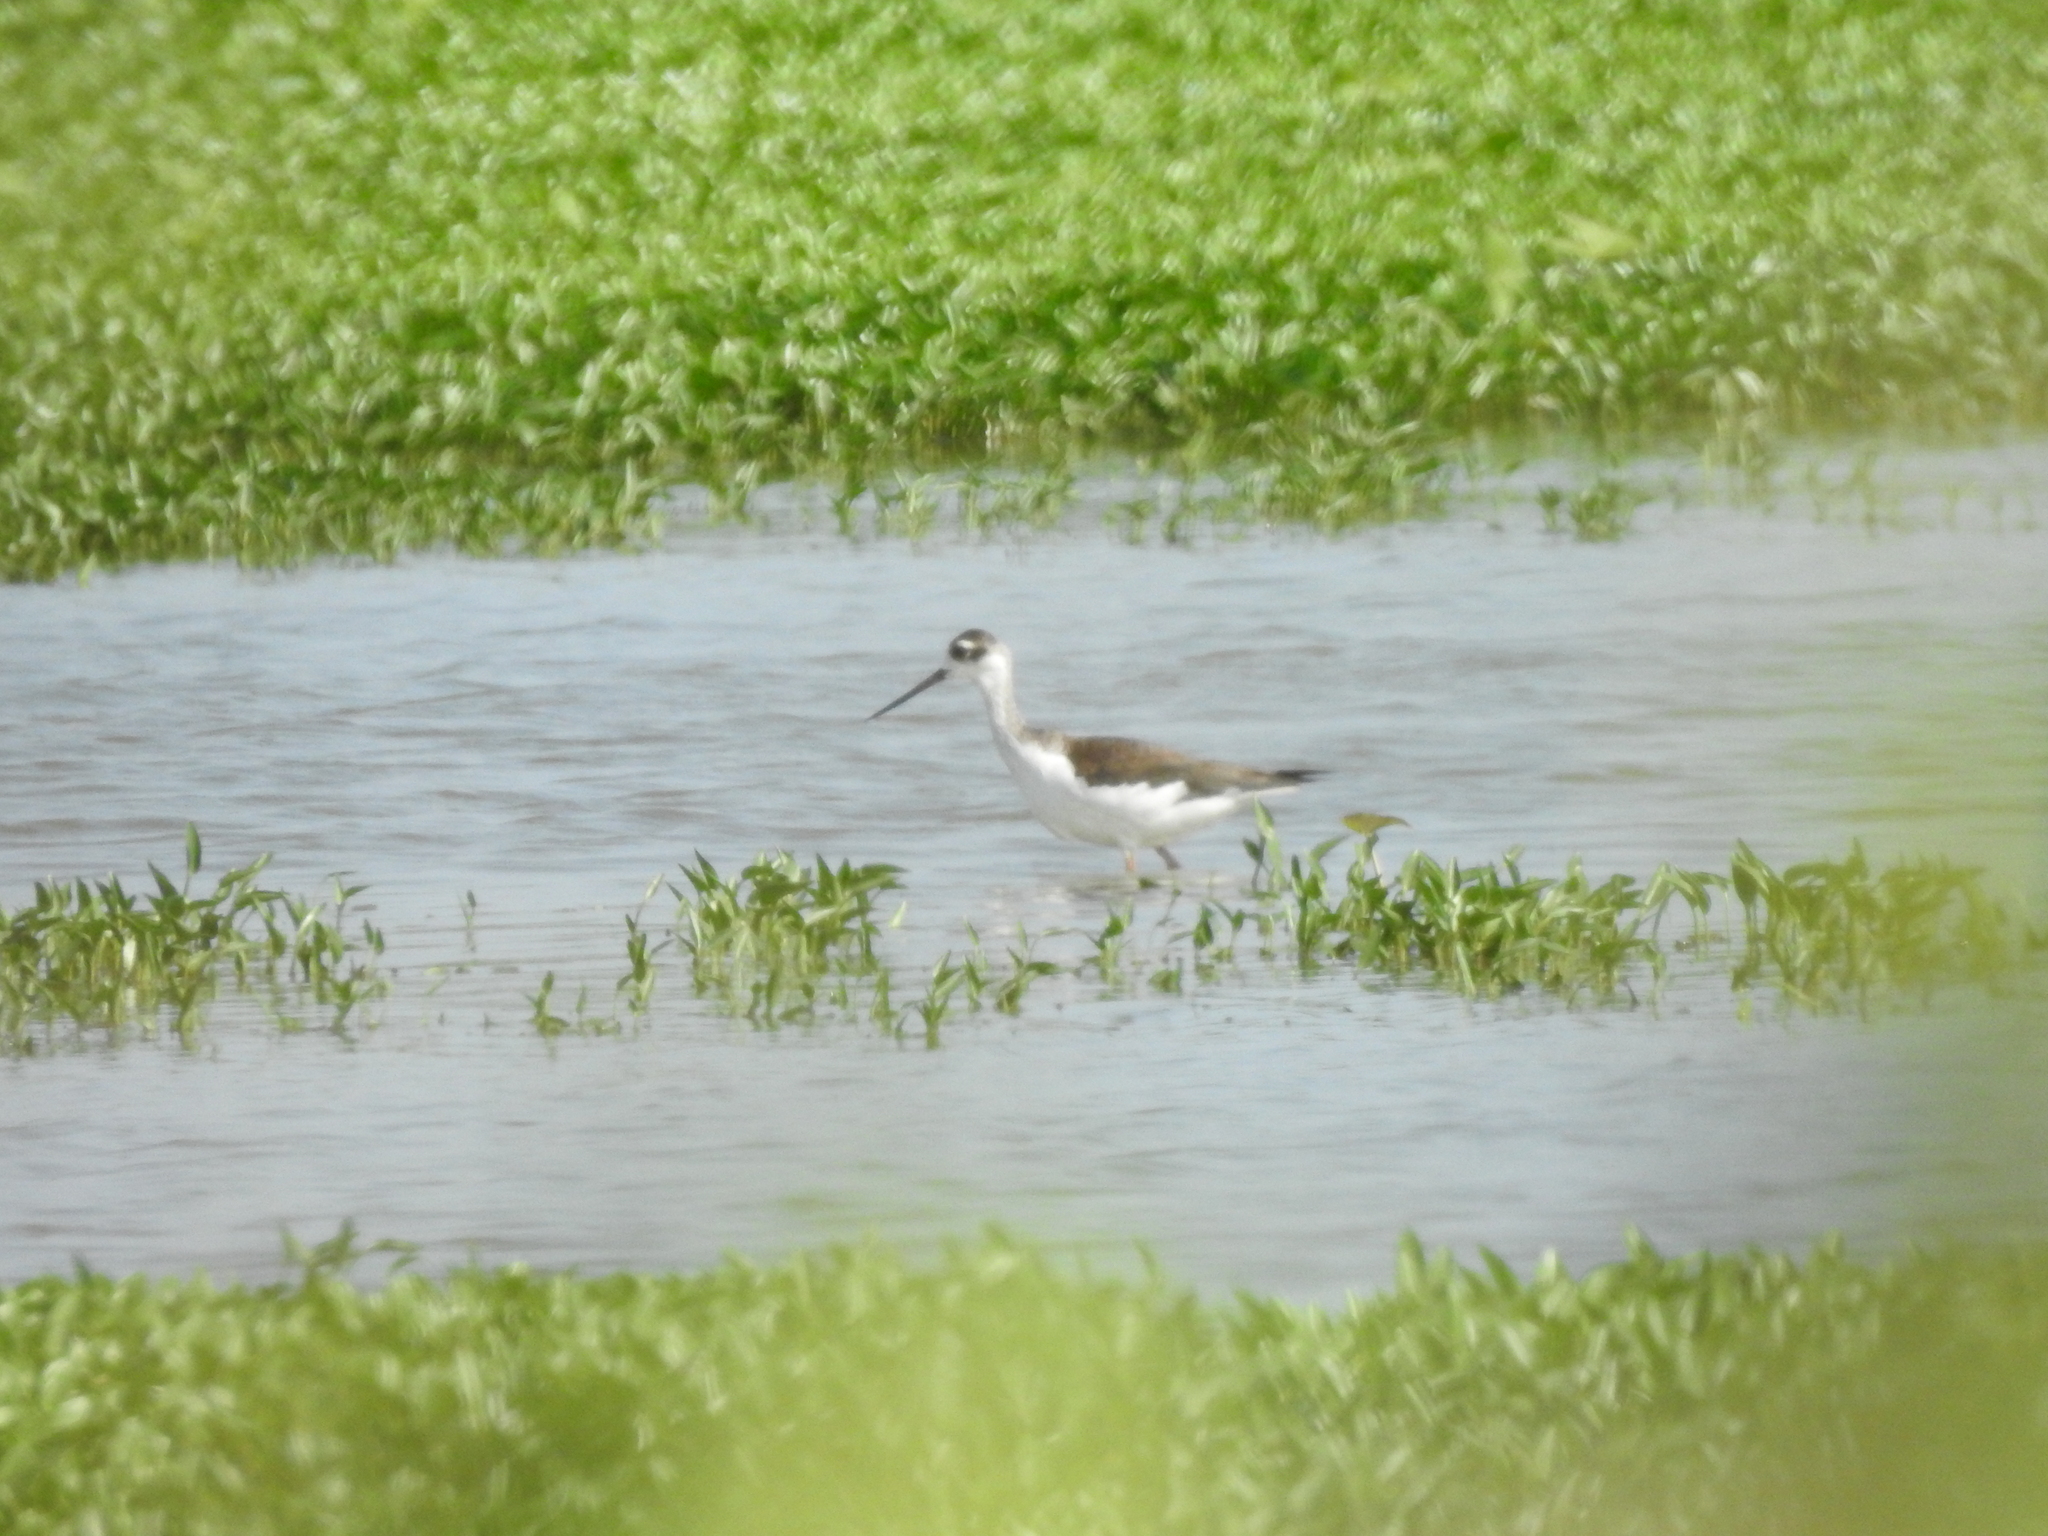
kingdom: Animalia
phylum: Chordata
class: Aves
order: Charadriiformes
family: Recurvirostridae
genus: Himantopus
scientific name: Himantopus mexicanus
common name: Black-necked stilt
